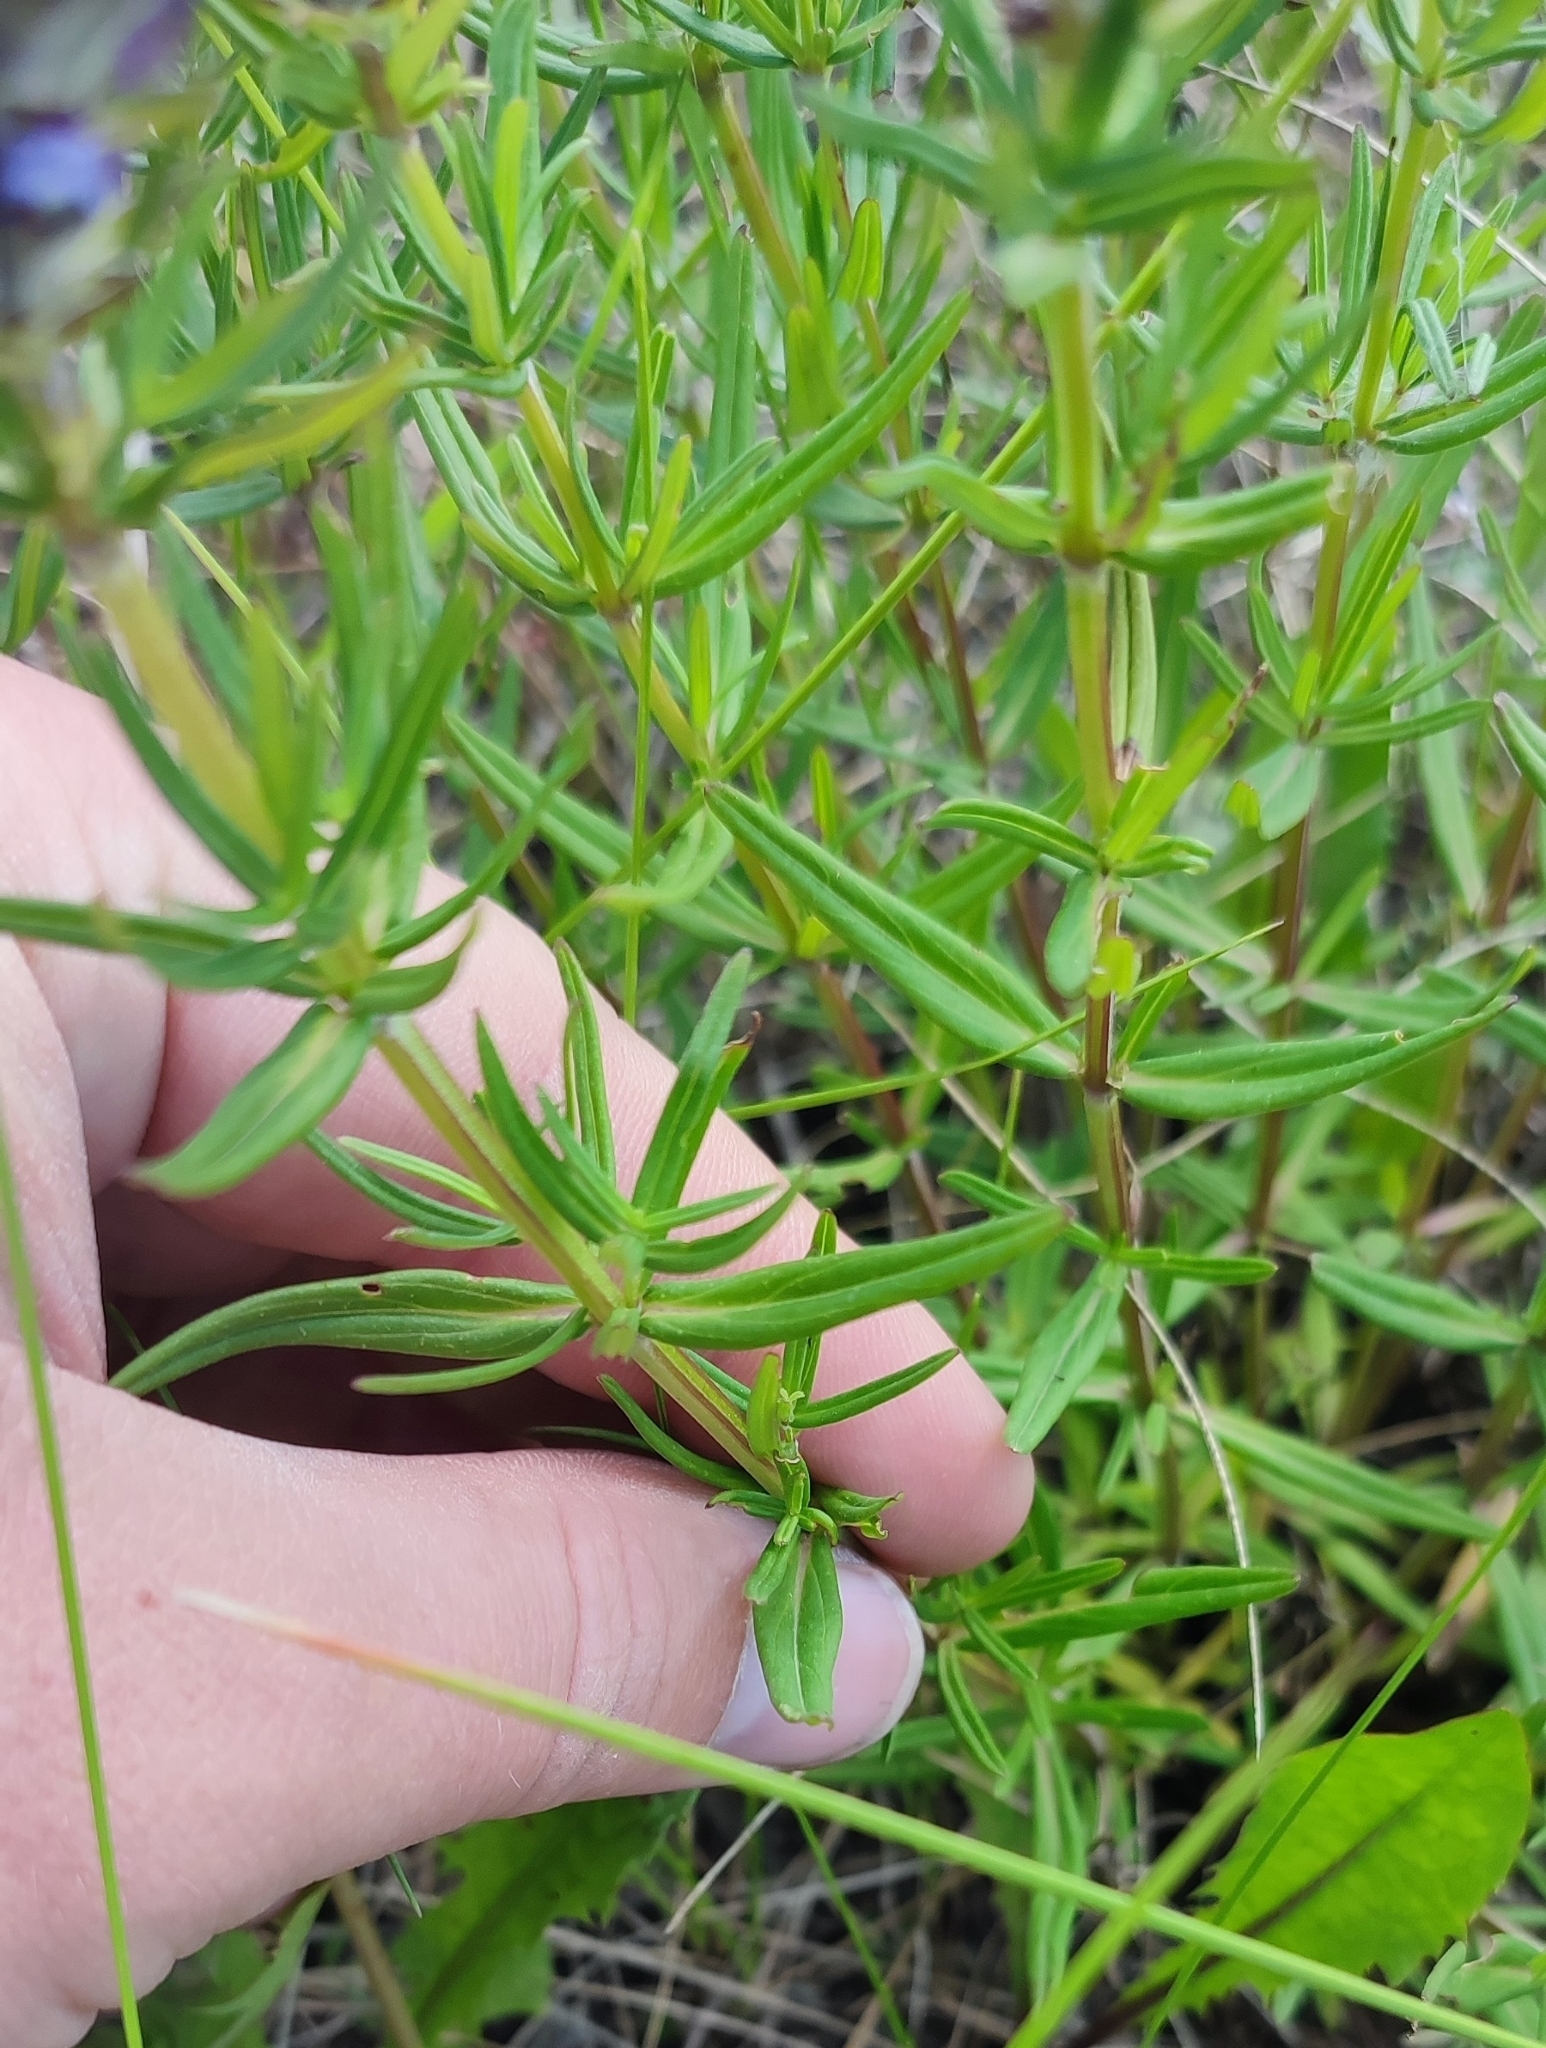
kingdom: Plantae
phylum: Tracheophyta
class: Magnoliopsida
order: Lamiales
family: Lamiaceae
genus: Dracocephalum
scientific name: Dracocephalum ruyschiana
